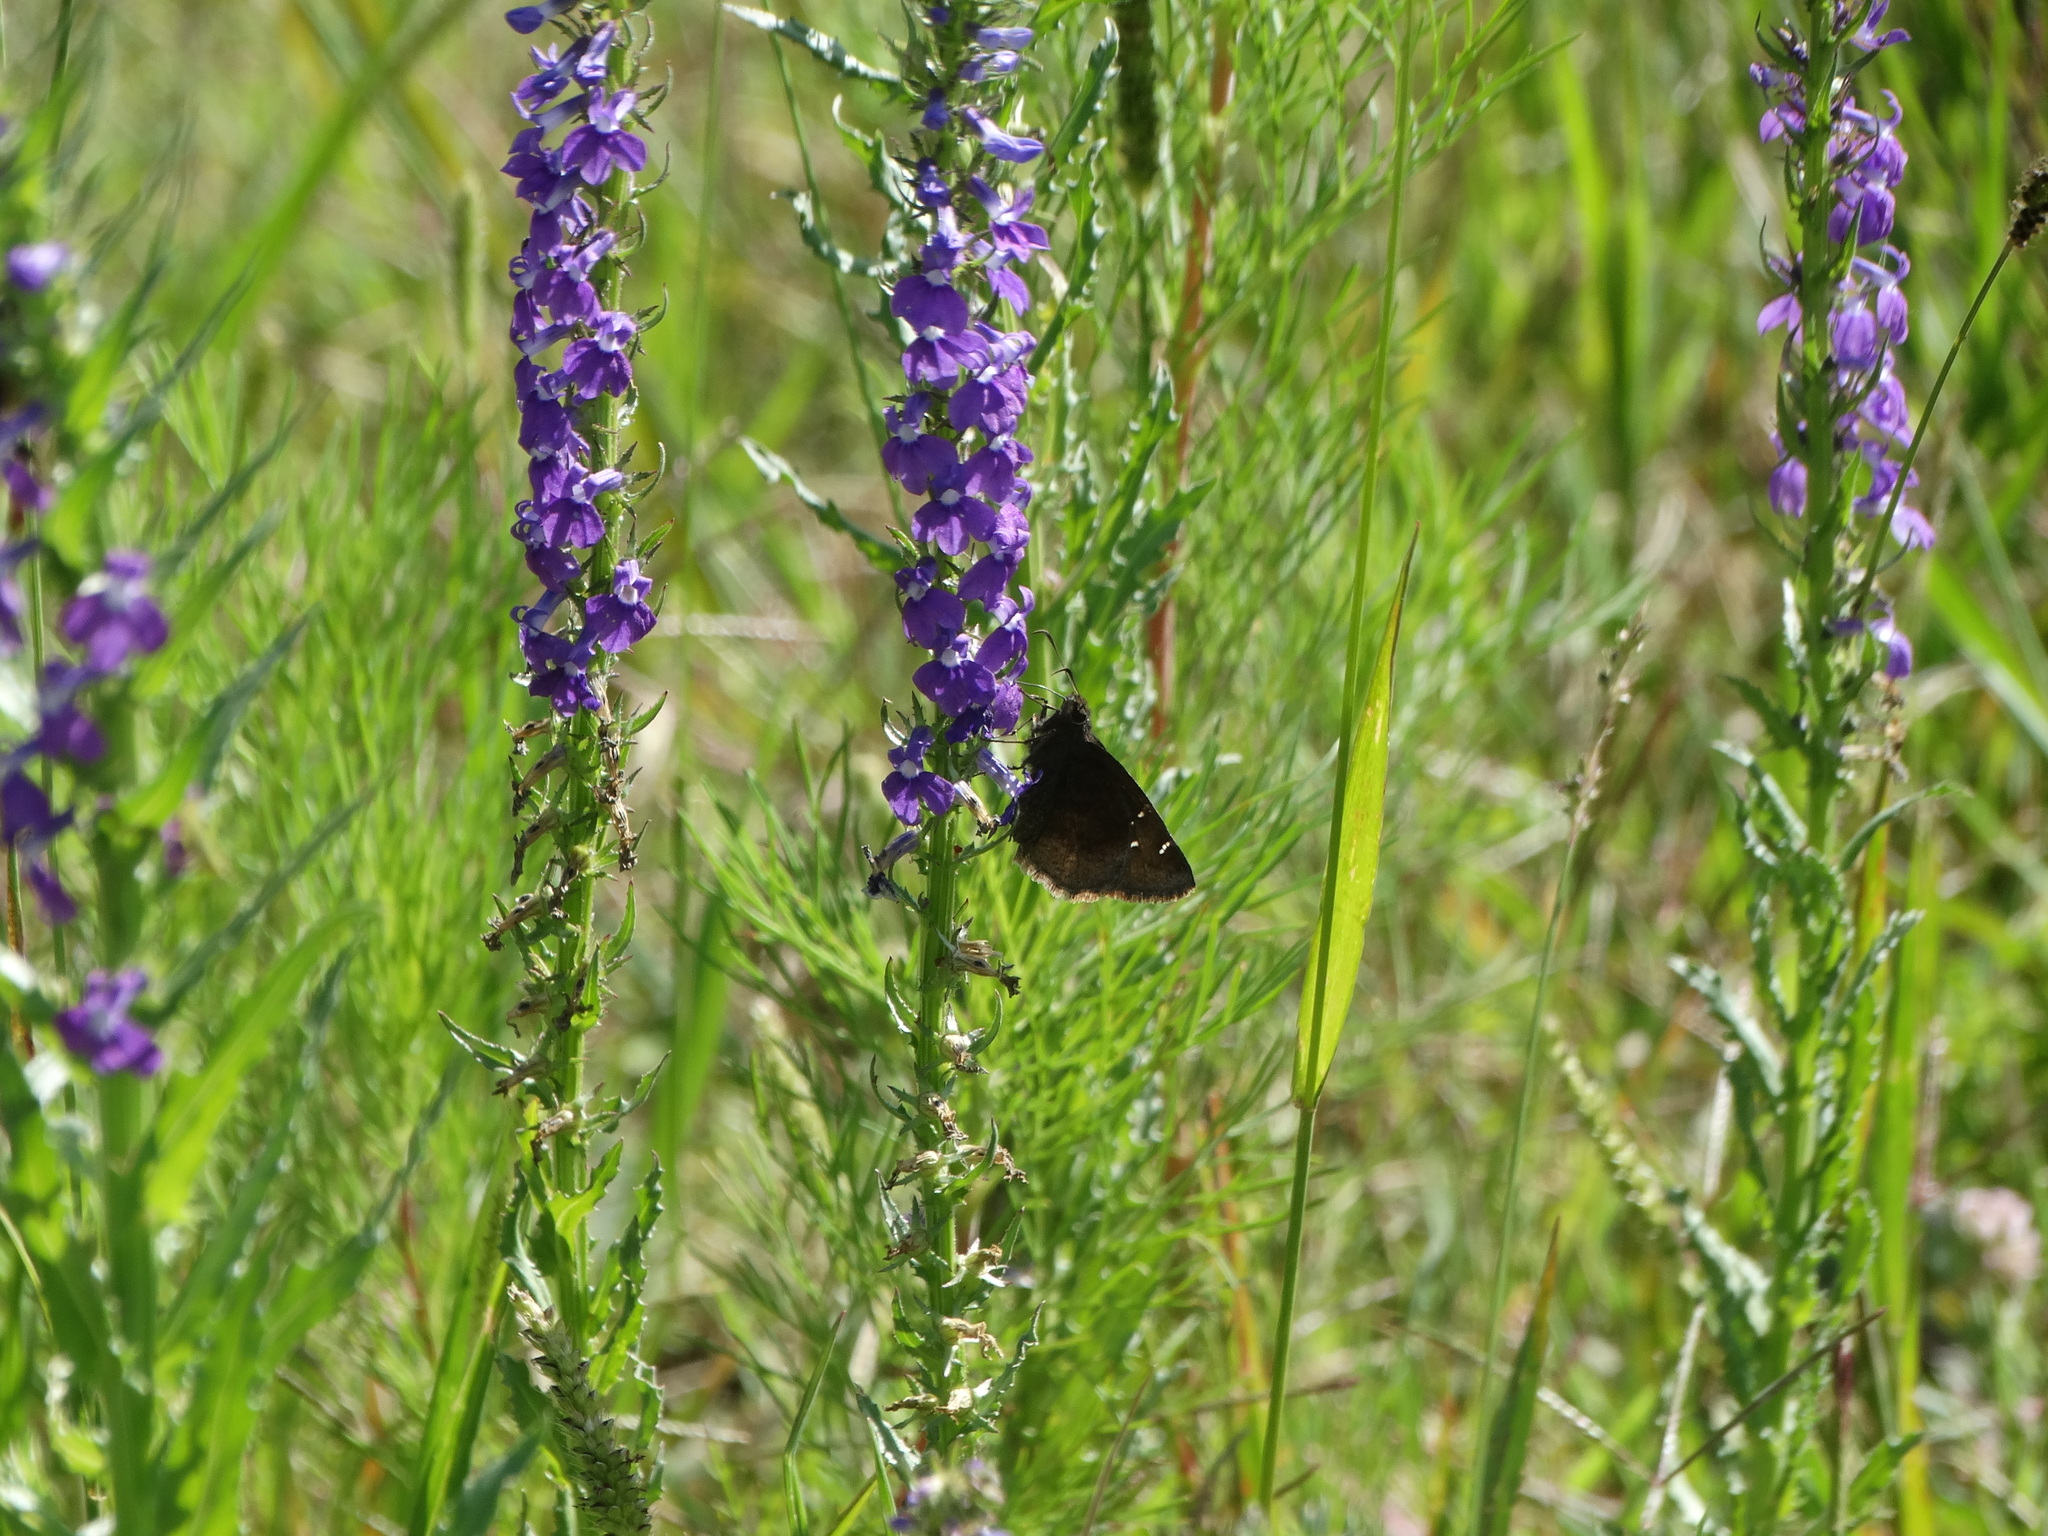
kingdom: Animalia
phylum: Arthropoda
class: Insecta
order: Lepidoptera
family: Hesperiidae
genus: Thorybes
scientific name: Thorybes mexicana
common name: Mexican cloudywing
